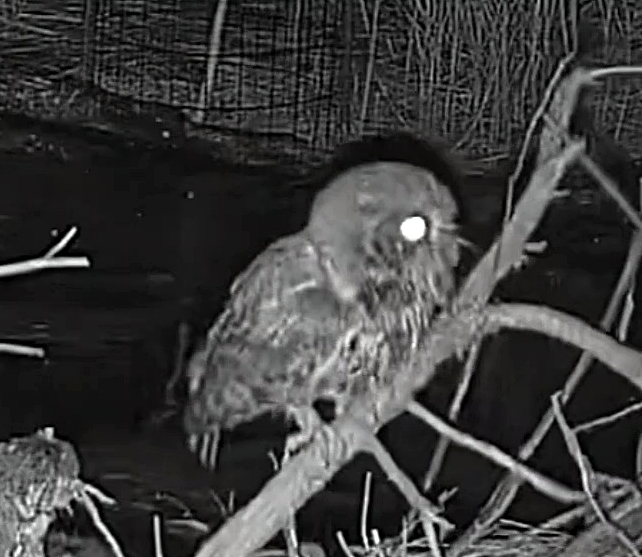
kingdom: Animalia
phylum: Chordata
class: Aves
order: Strigiformes
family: Strigidae
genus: Megascops
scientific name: Megascops asio
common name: Eastern screech-owl
